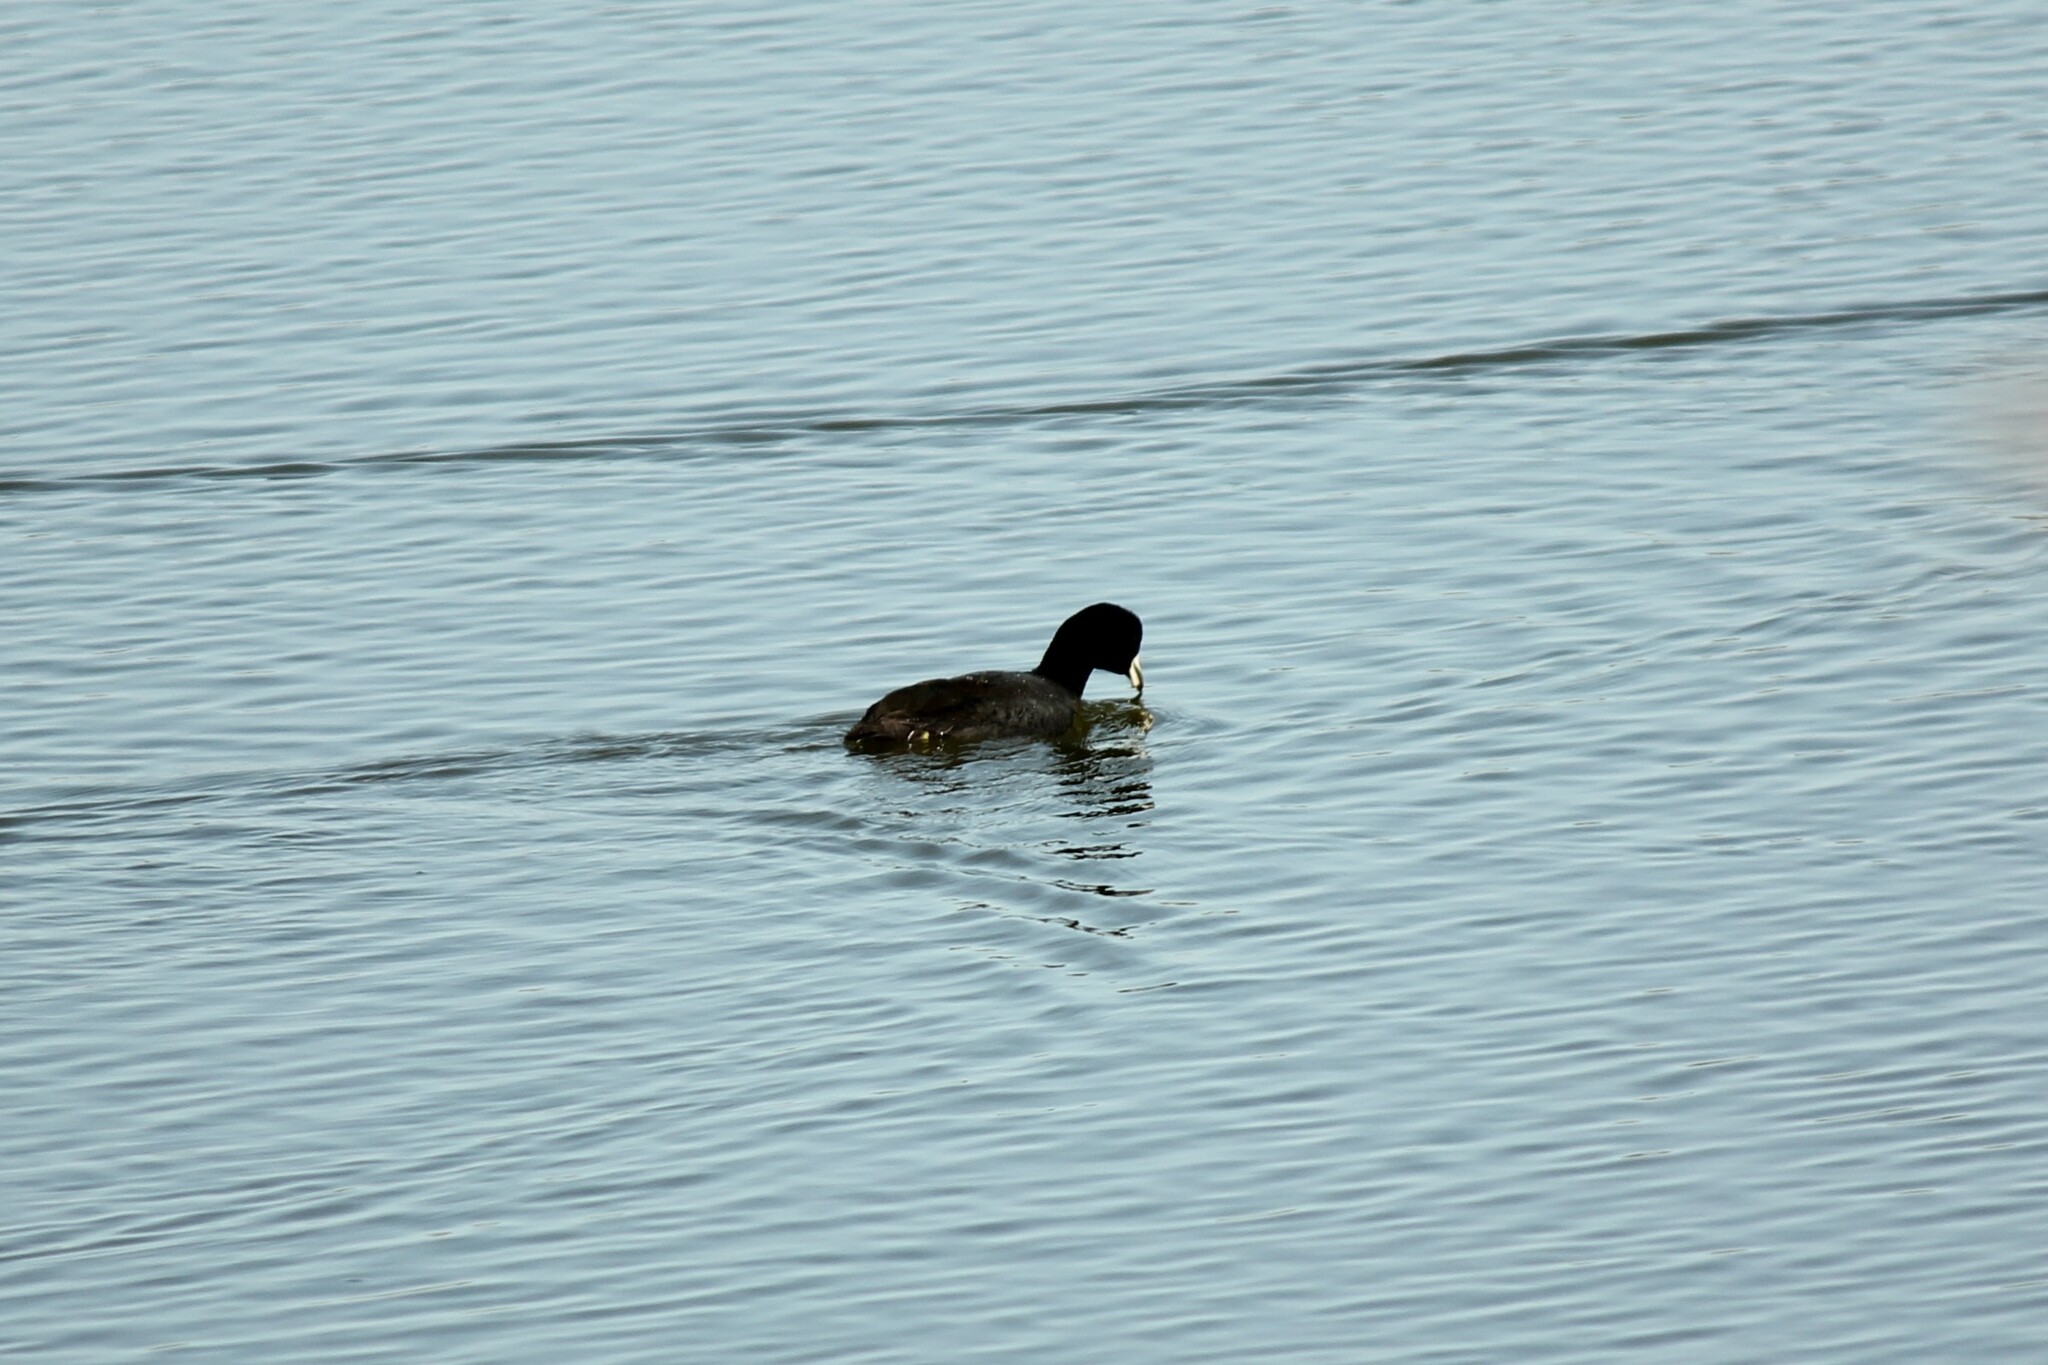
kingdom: Animalia
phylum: Chordata
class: Aves
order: Gruiformes
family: Rallidae
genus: Fulica
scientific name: Fulica americana
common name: American coot
